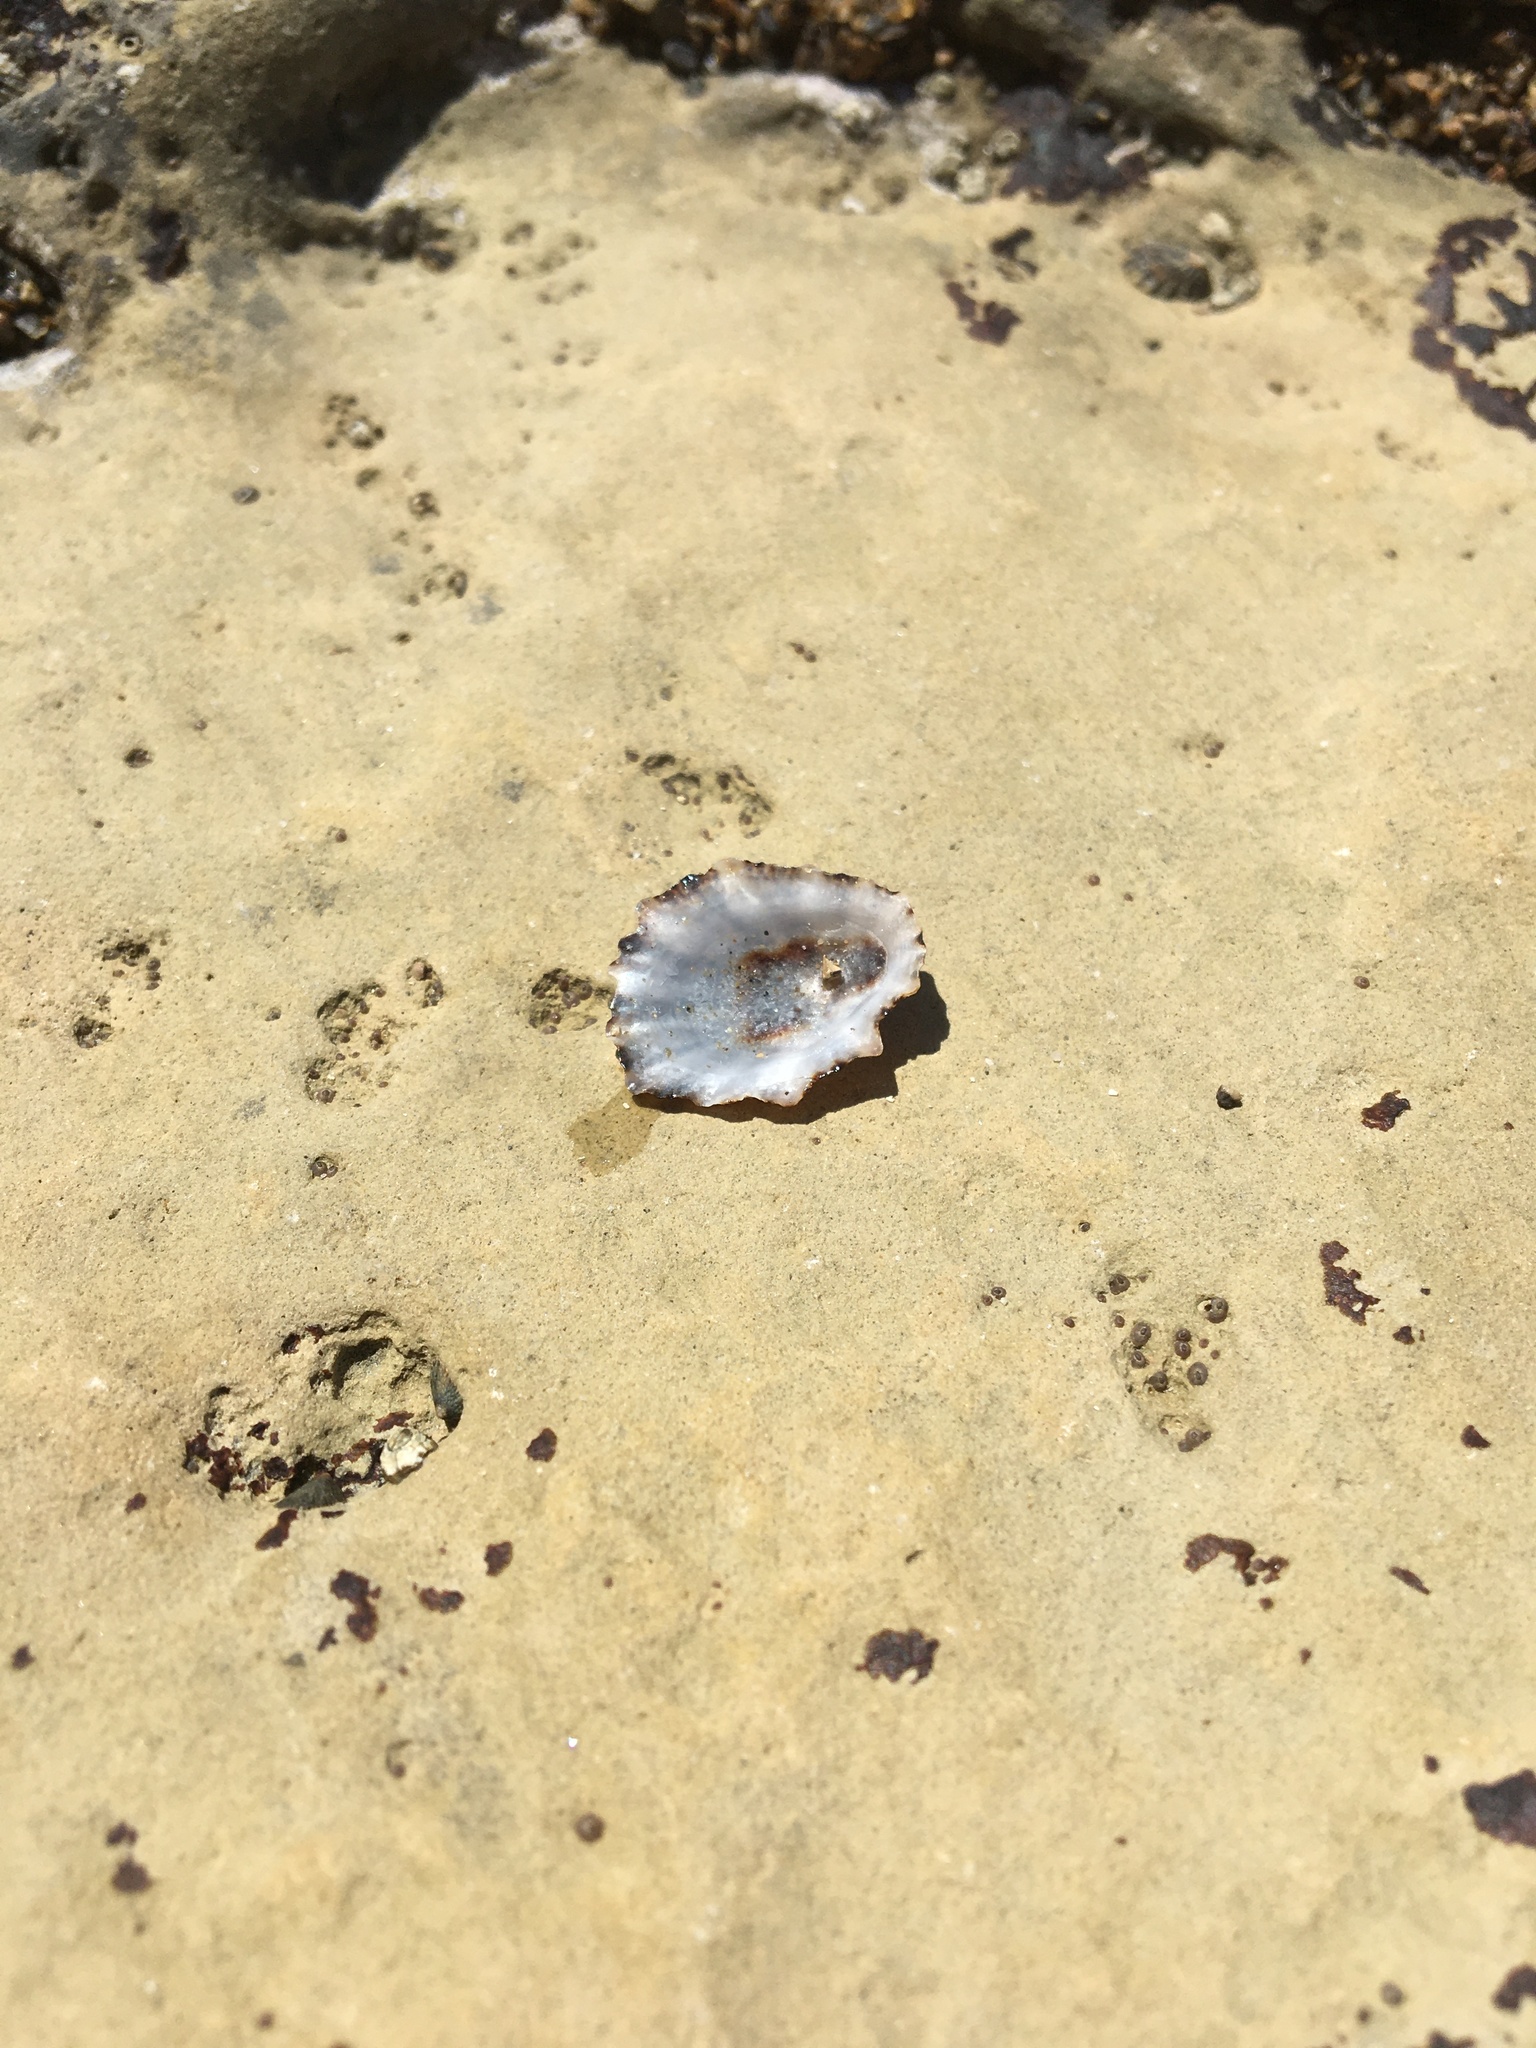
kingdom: Animalia
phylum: Mollusca
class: Gastropoda
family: Lottiidae
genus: Lottia
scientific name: Lottia scabra
